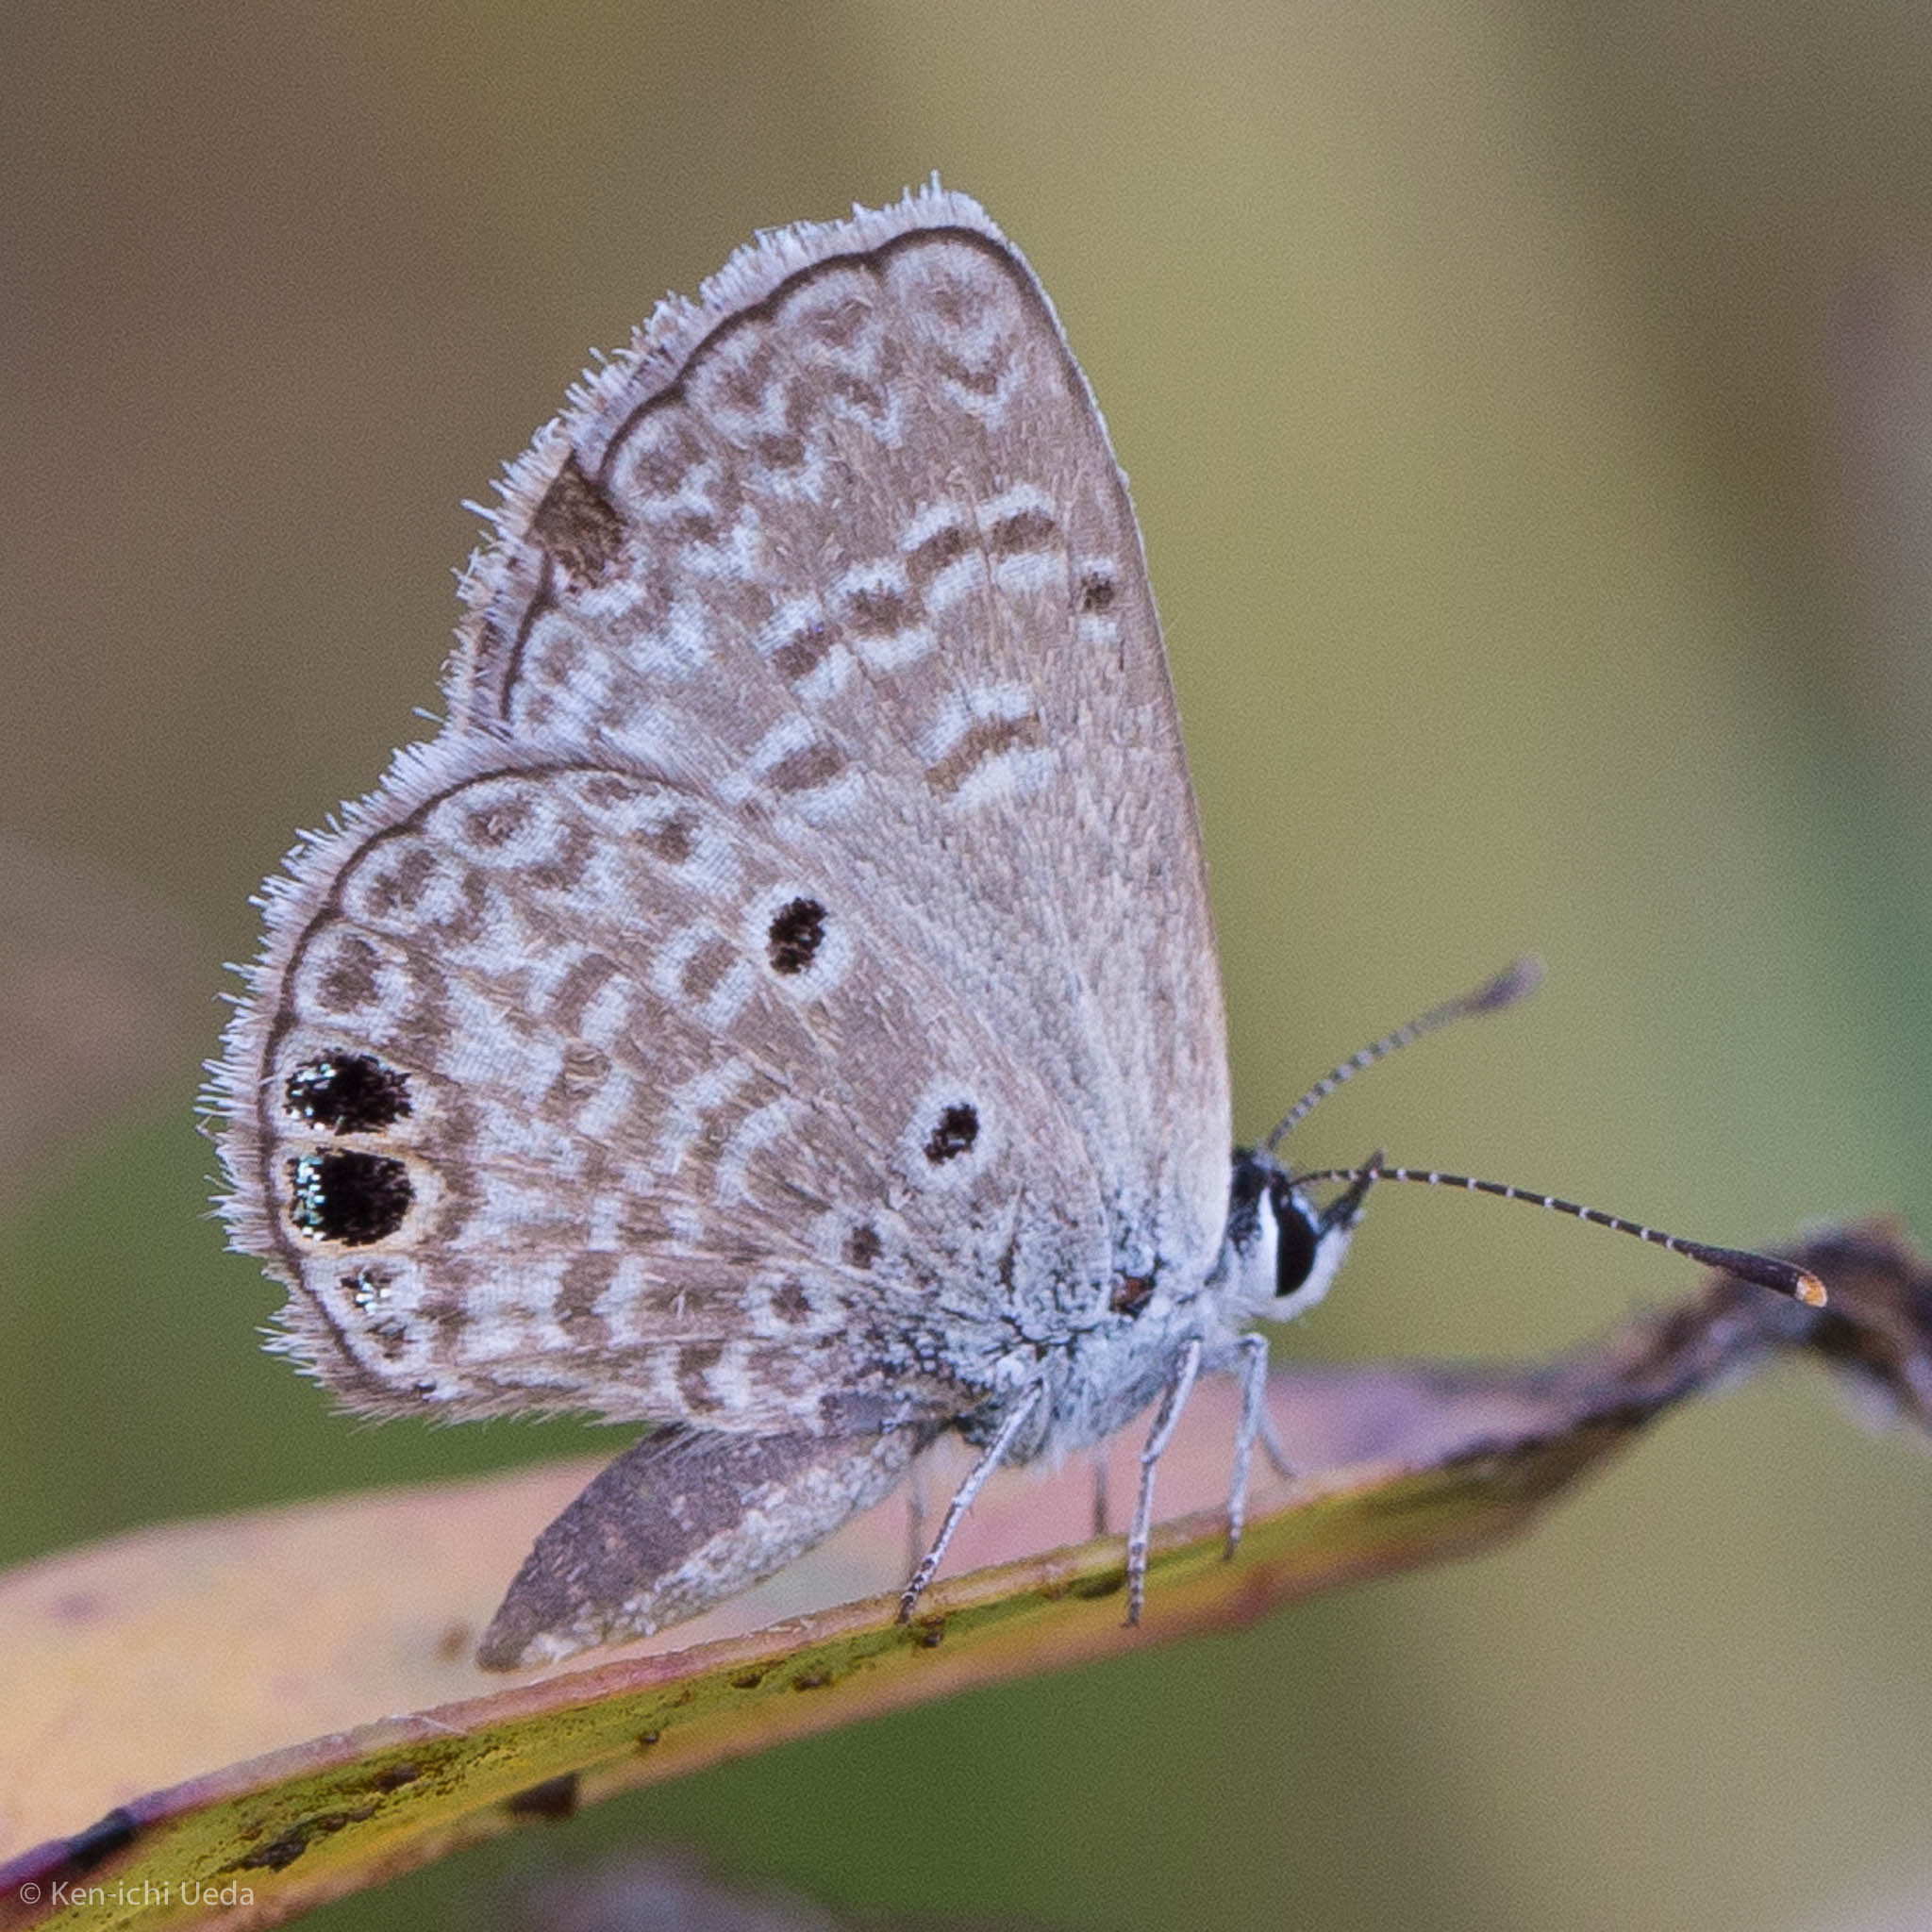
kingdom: Animalia
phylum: Arthropoda
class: Insecta
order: Lepidoptera
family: Lycaenidae
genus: Hemiargus
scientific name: Hemiargus ceraunus
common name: Ceraunus blue
